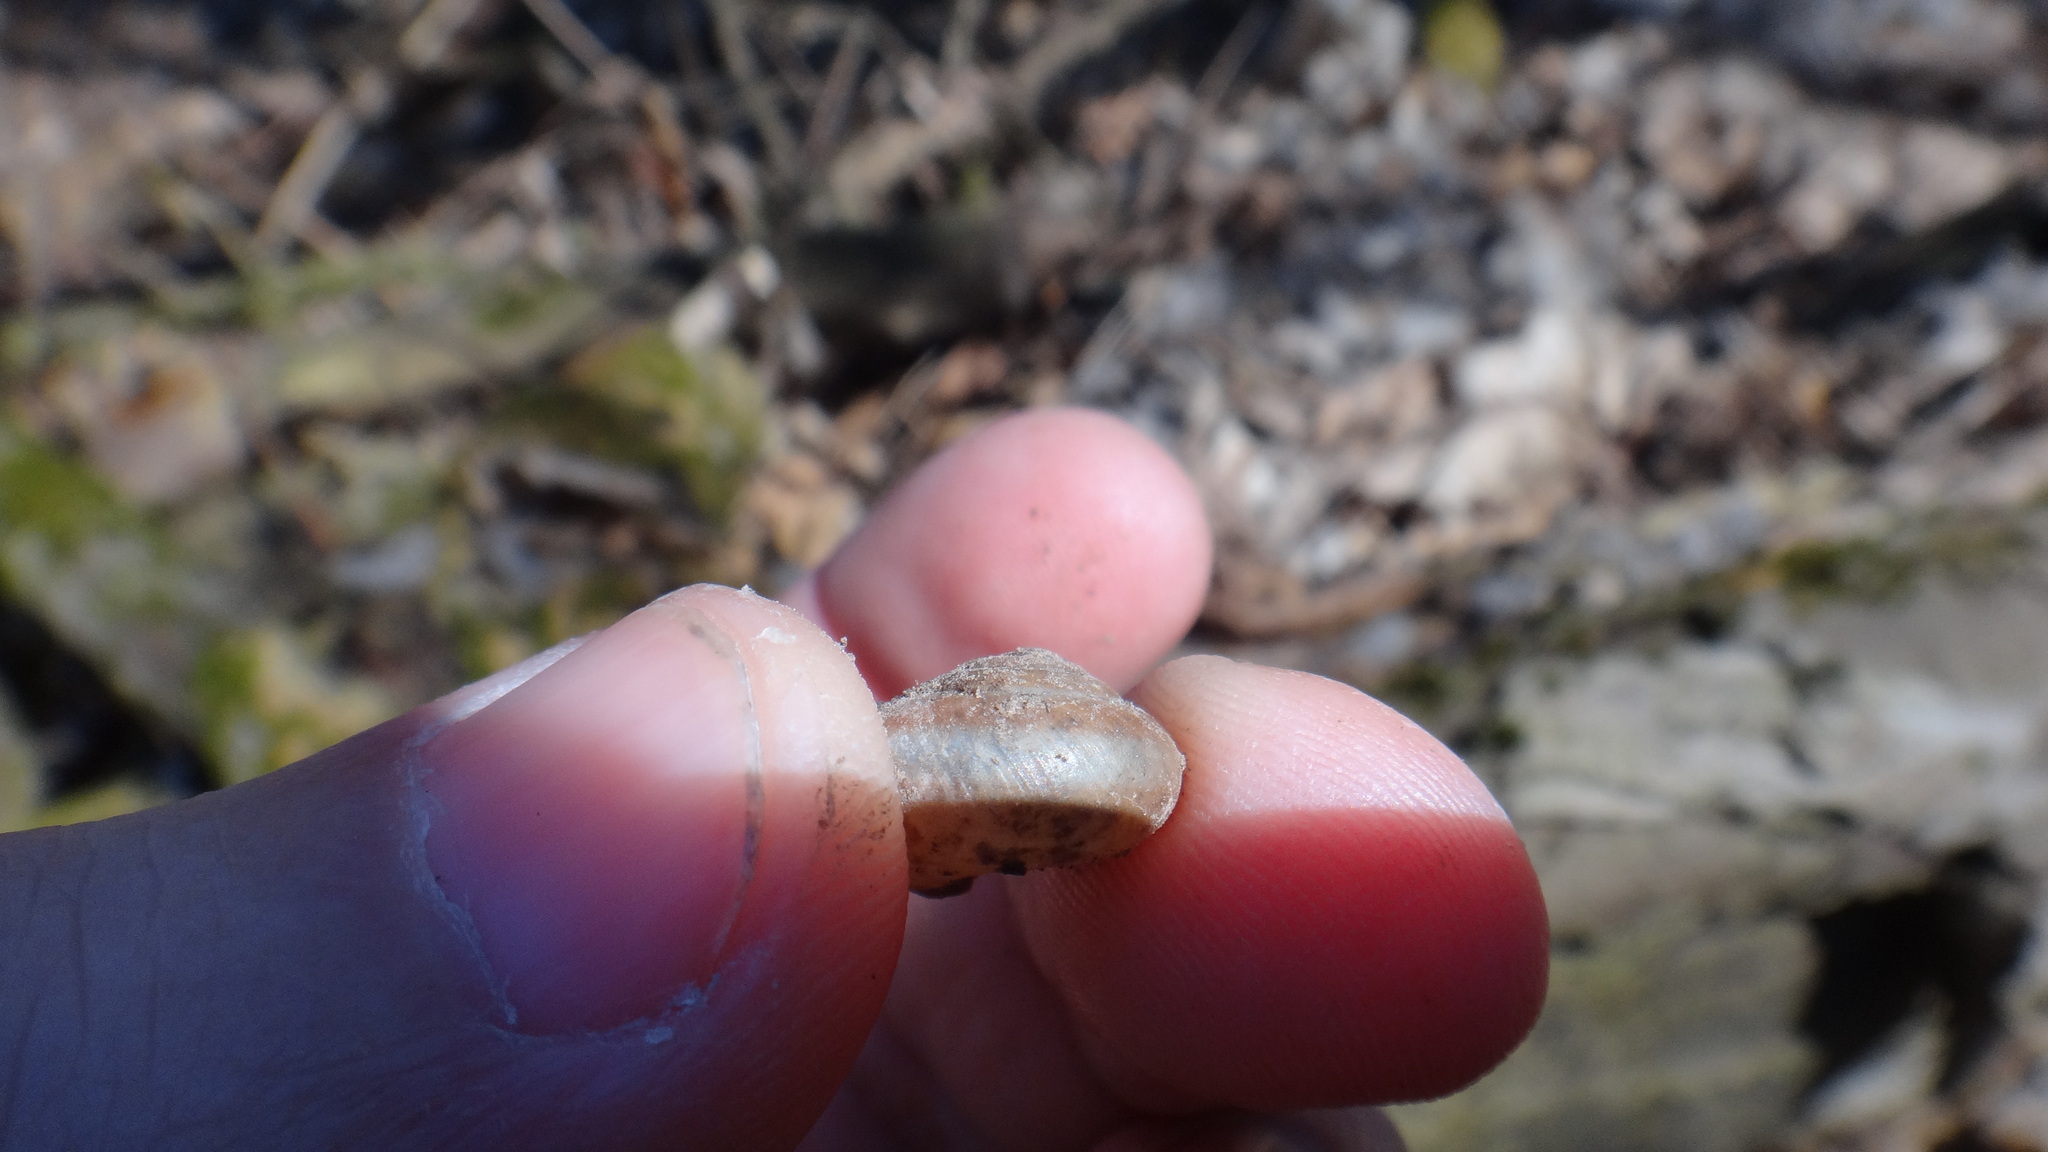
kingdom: Animalia
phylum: Mollusca
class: Gastropoda
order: Stylommatophora
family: Hygromiidae
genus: Euomphalia
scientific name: Euomphalia strigella
